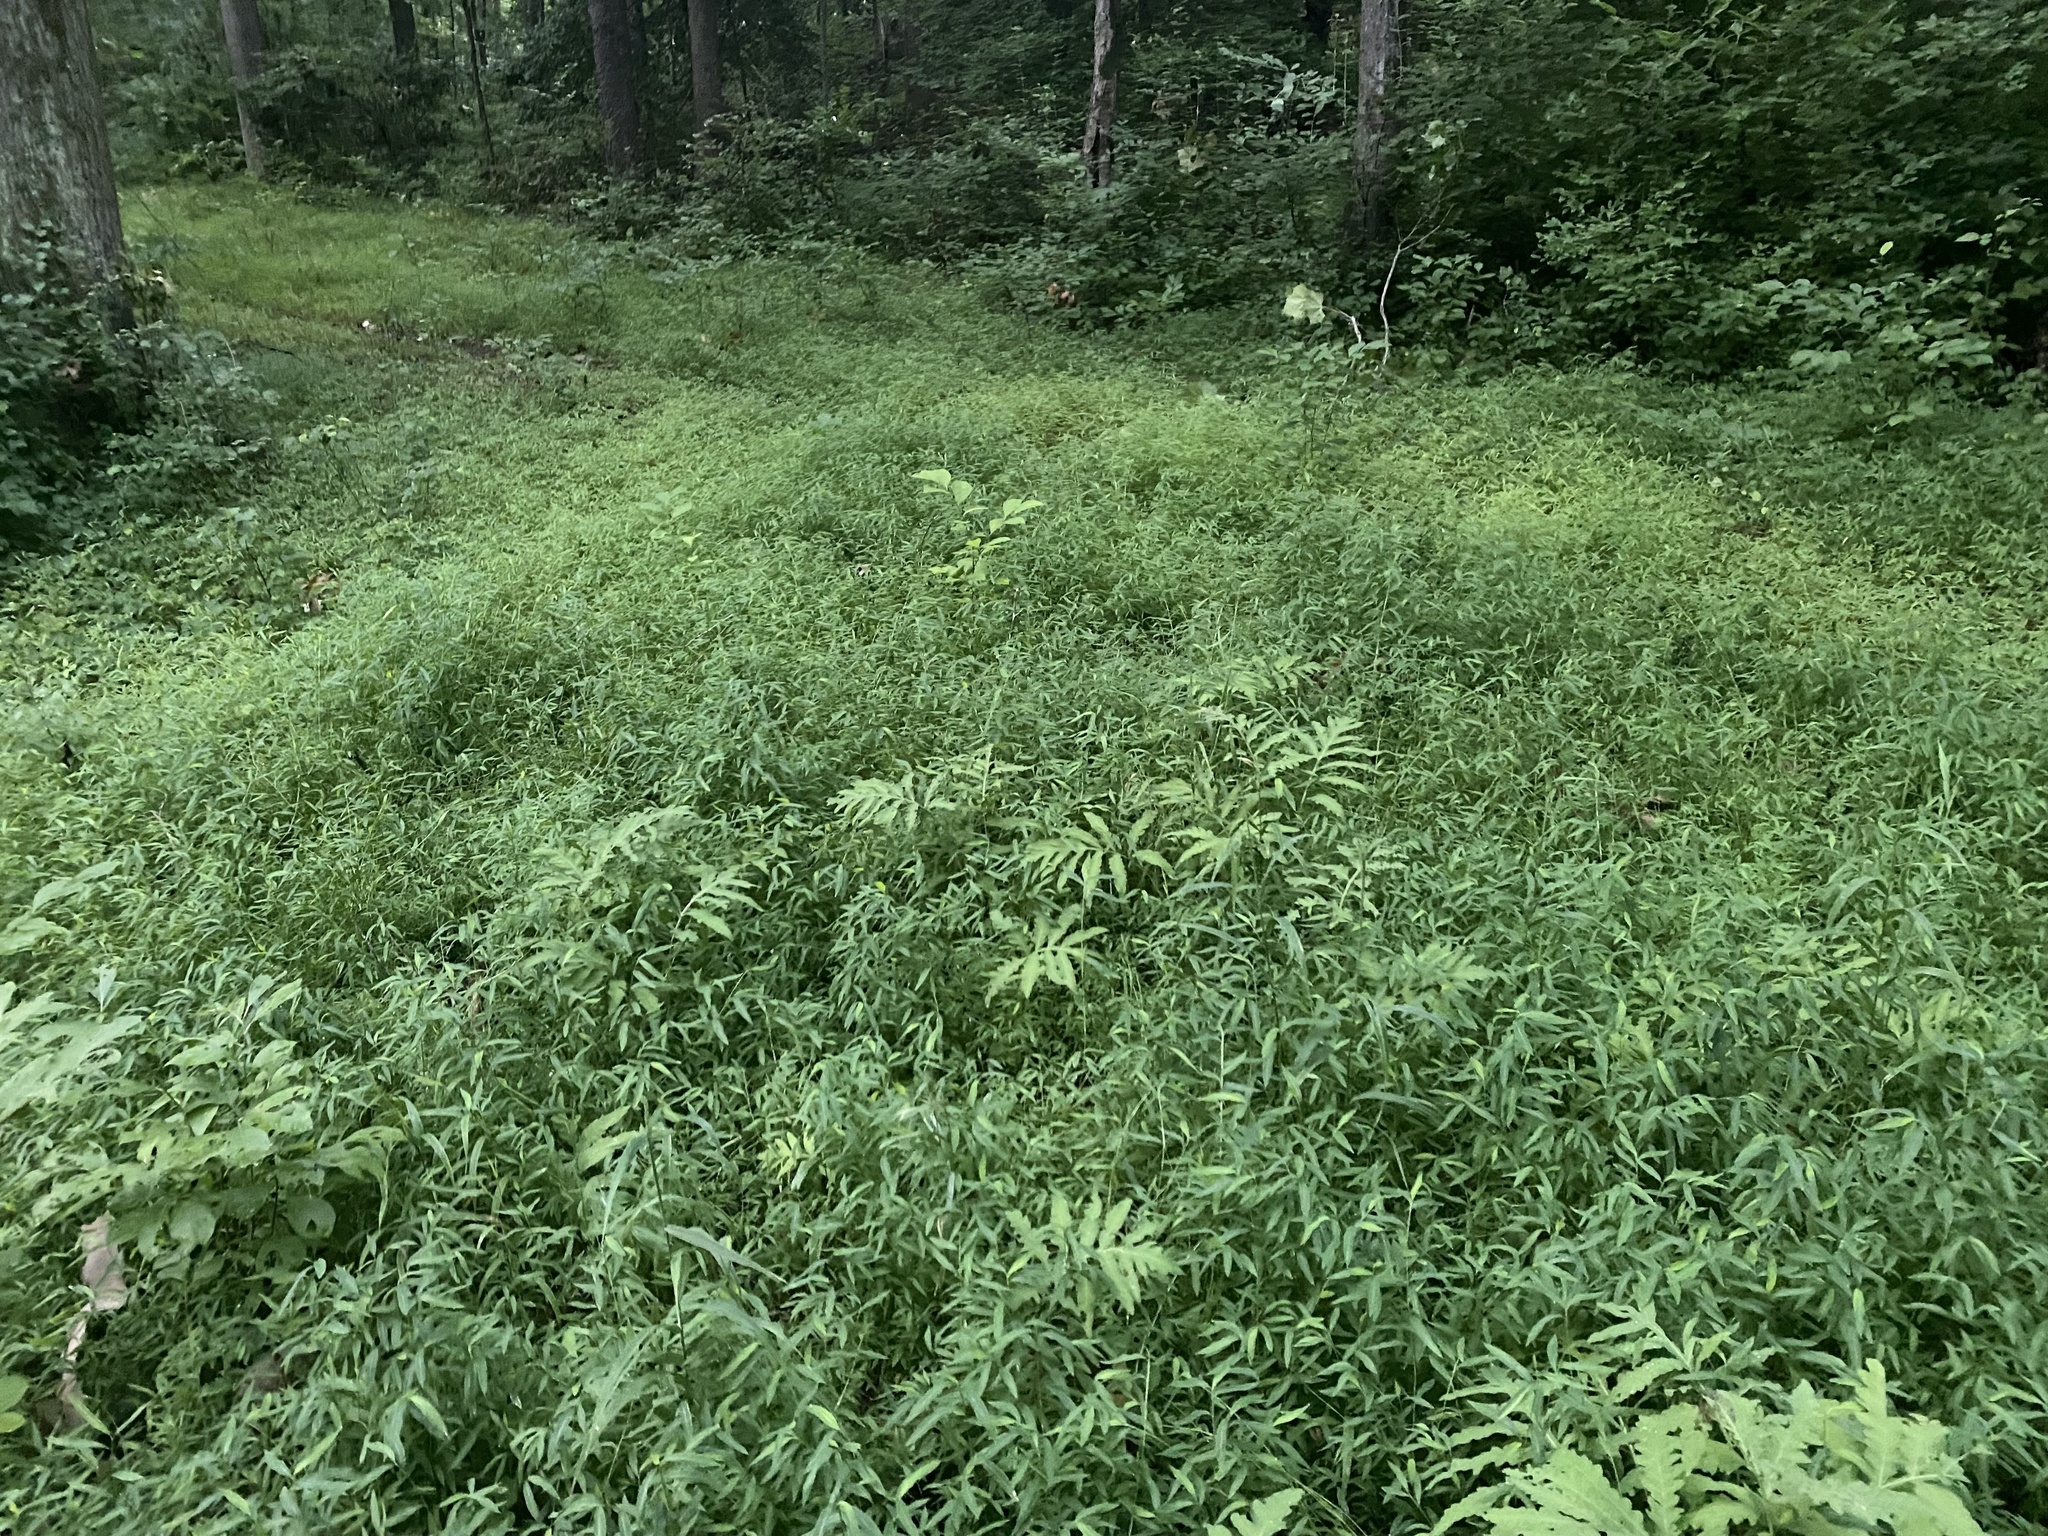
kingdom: Plantae
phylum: Tracheophyta
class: Liliopsida
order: Poales
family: Poaceae
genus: Microstegium
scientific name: Microstegium vimineum
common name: Japanese stiltgrass
